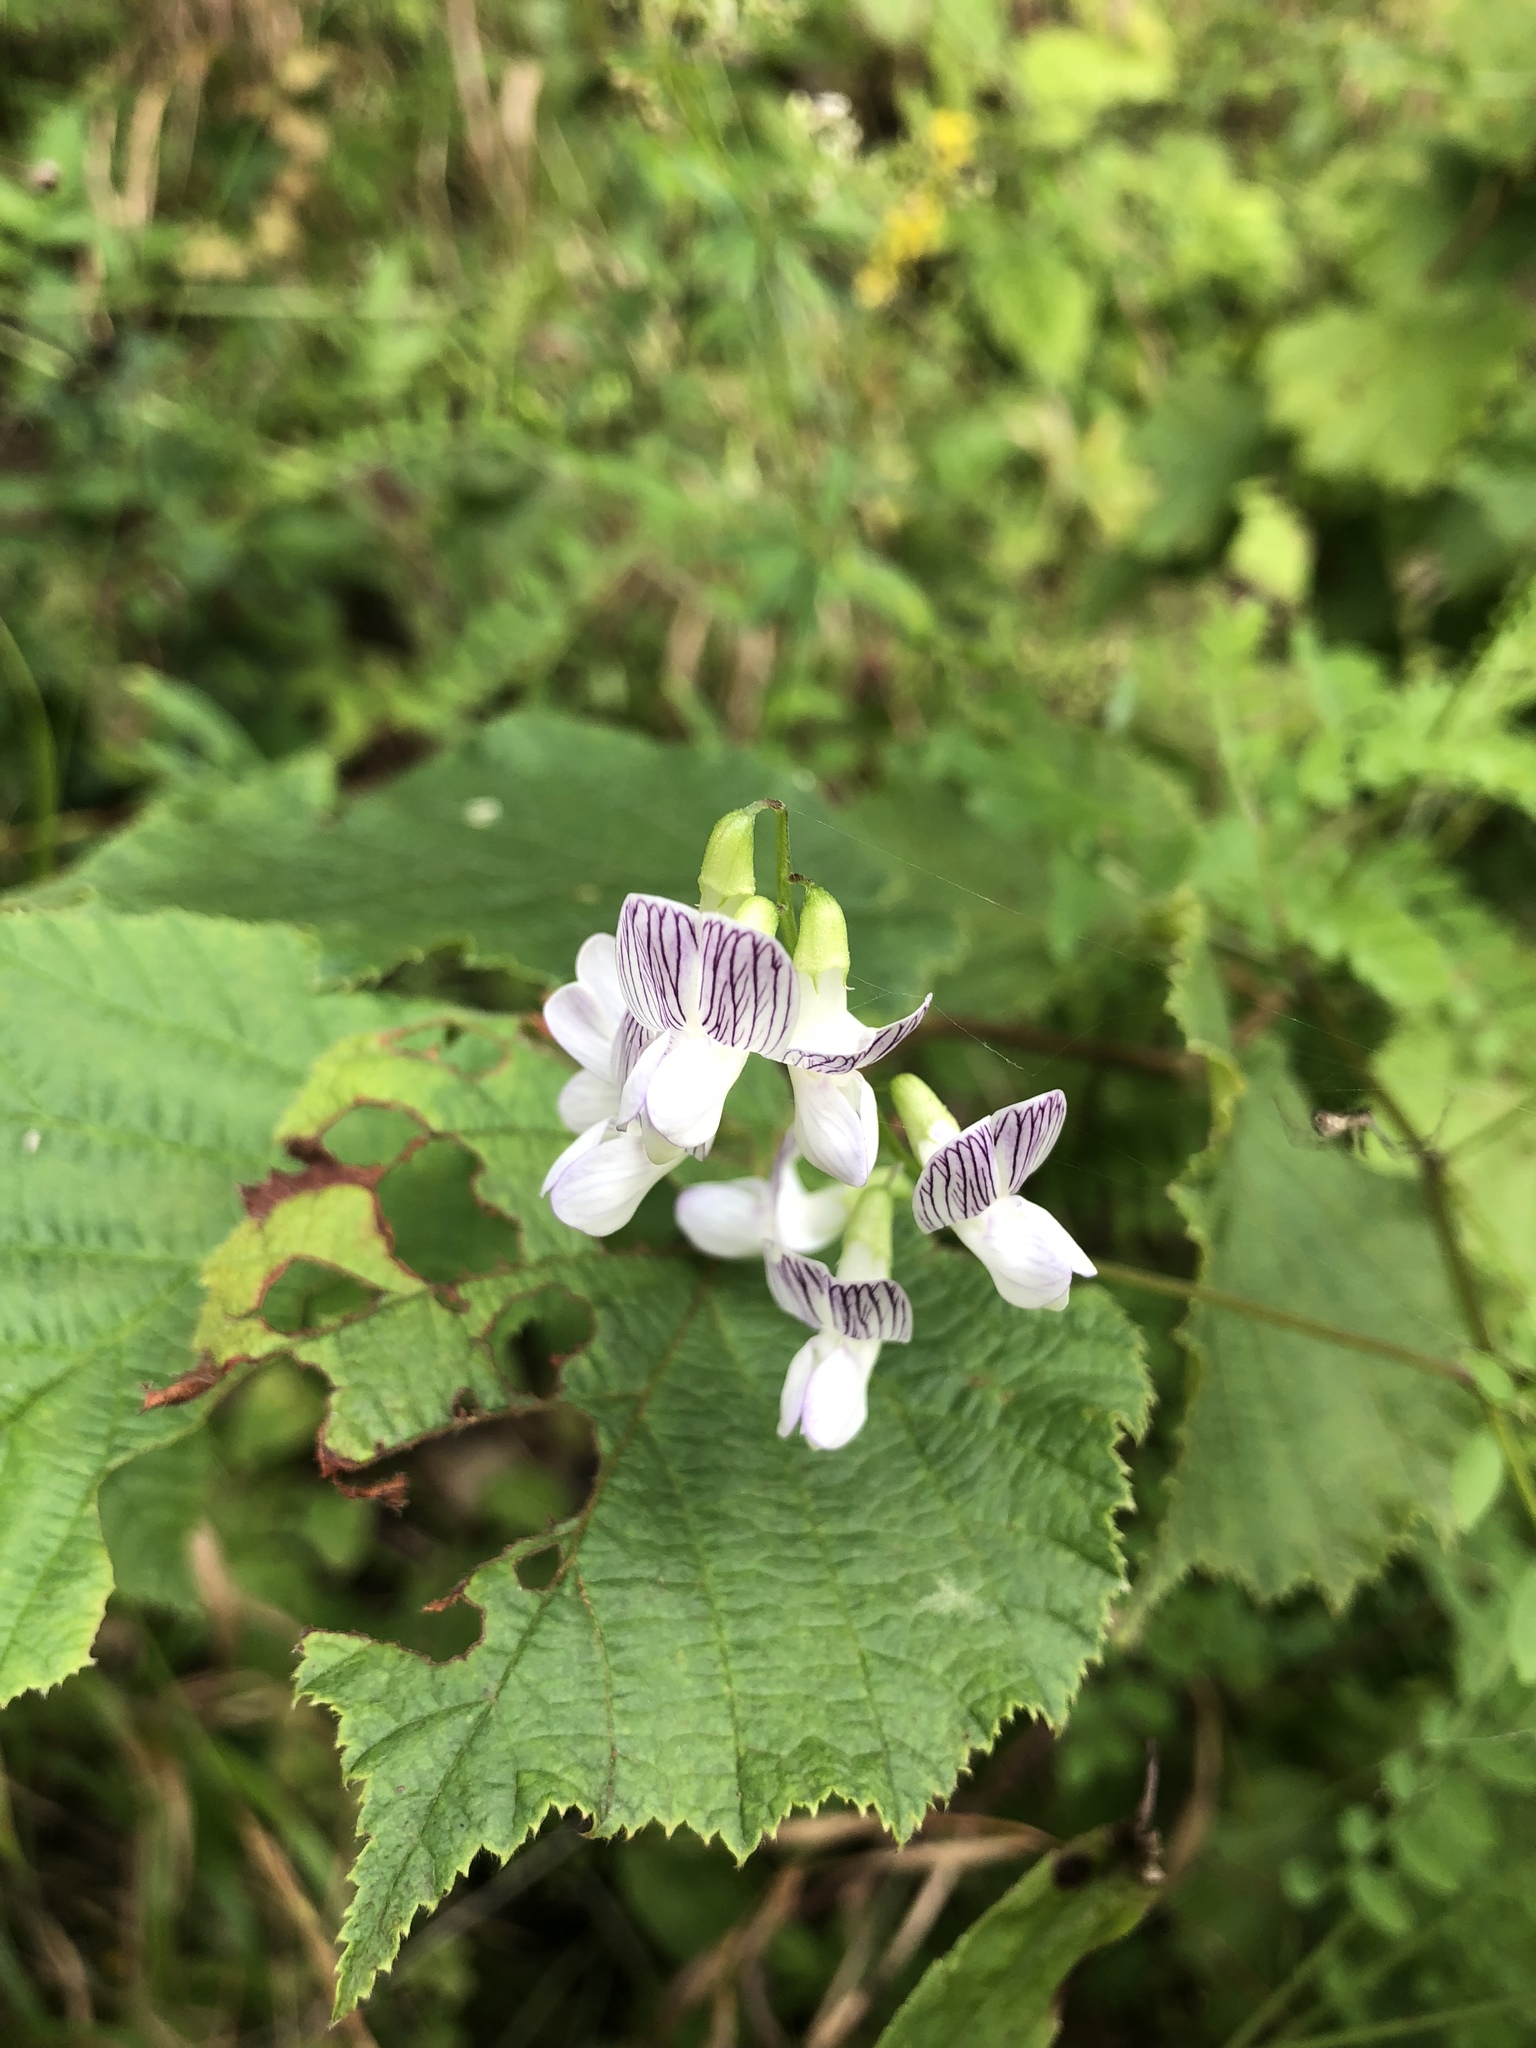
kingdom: Plantae
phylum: Tracheophyta
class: Magnoliopsida
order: Fabales
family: Fabaceae
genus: Vicia
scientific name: Vicia sylvatica
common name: Wood vetch
